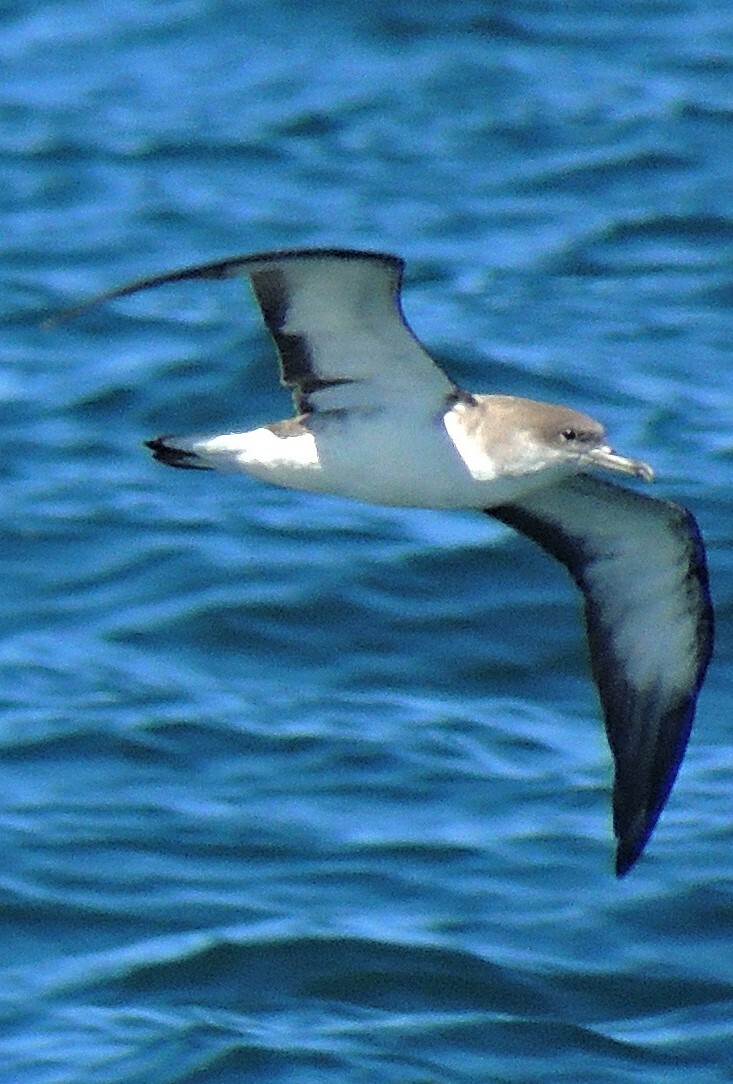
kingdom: Animalia
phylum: Chordata
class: Aves
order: Procellariiformes
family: Procellariidae
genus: Calonectris
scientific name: Calonectris edwardsii
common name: Cape verde shearwater
